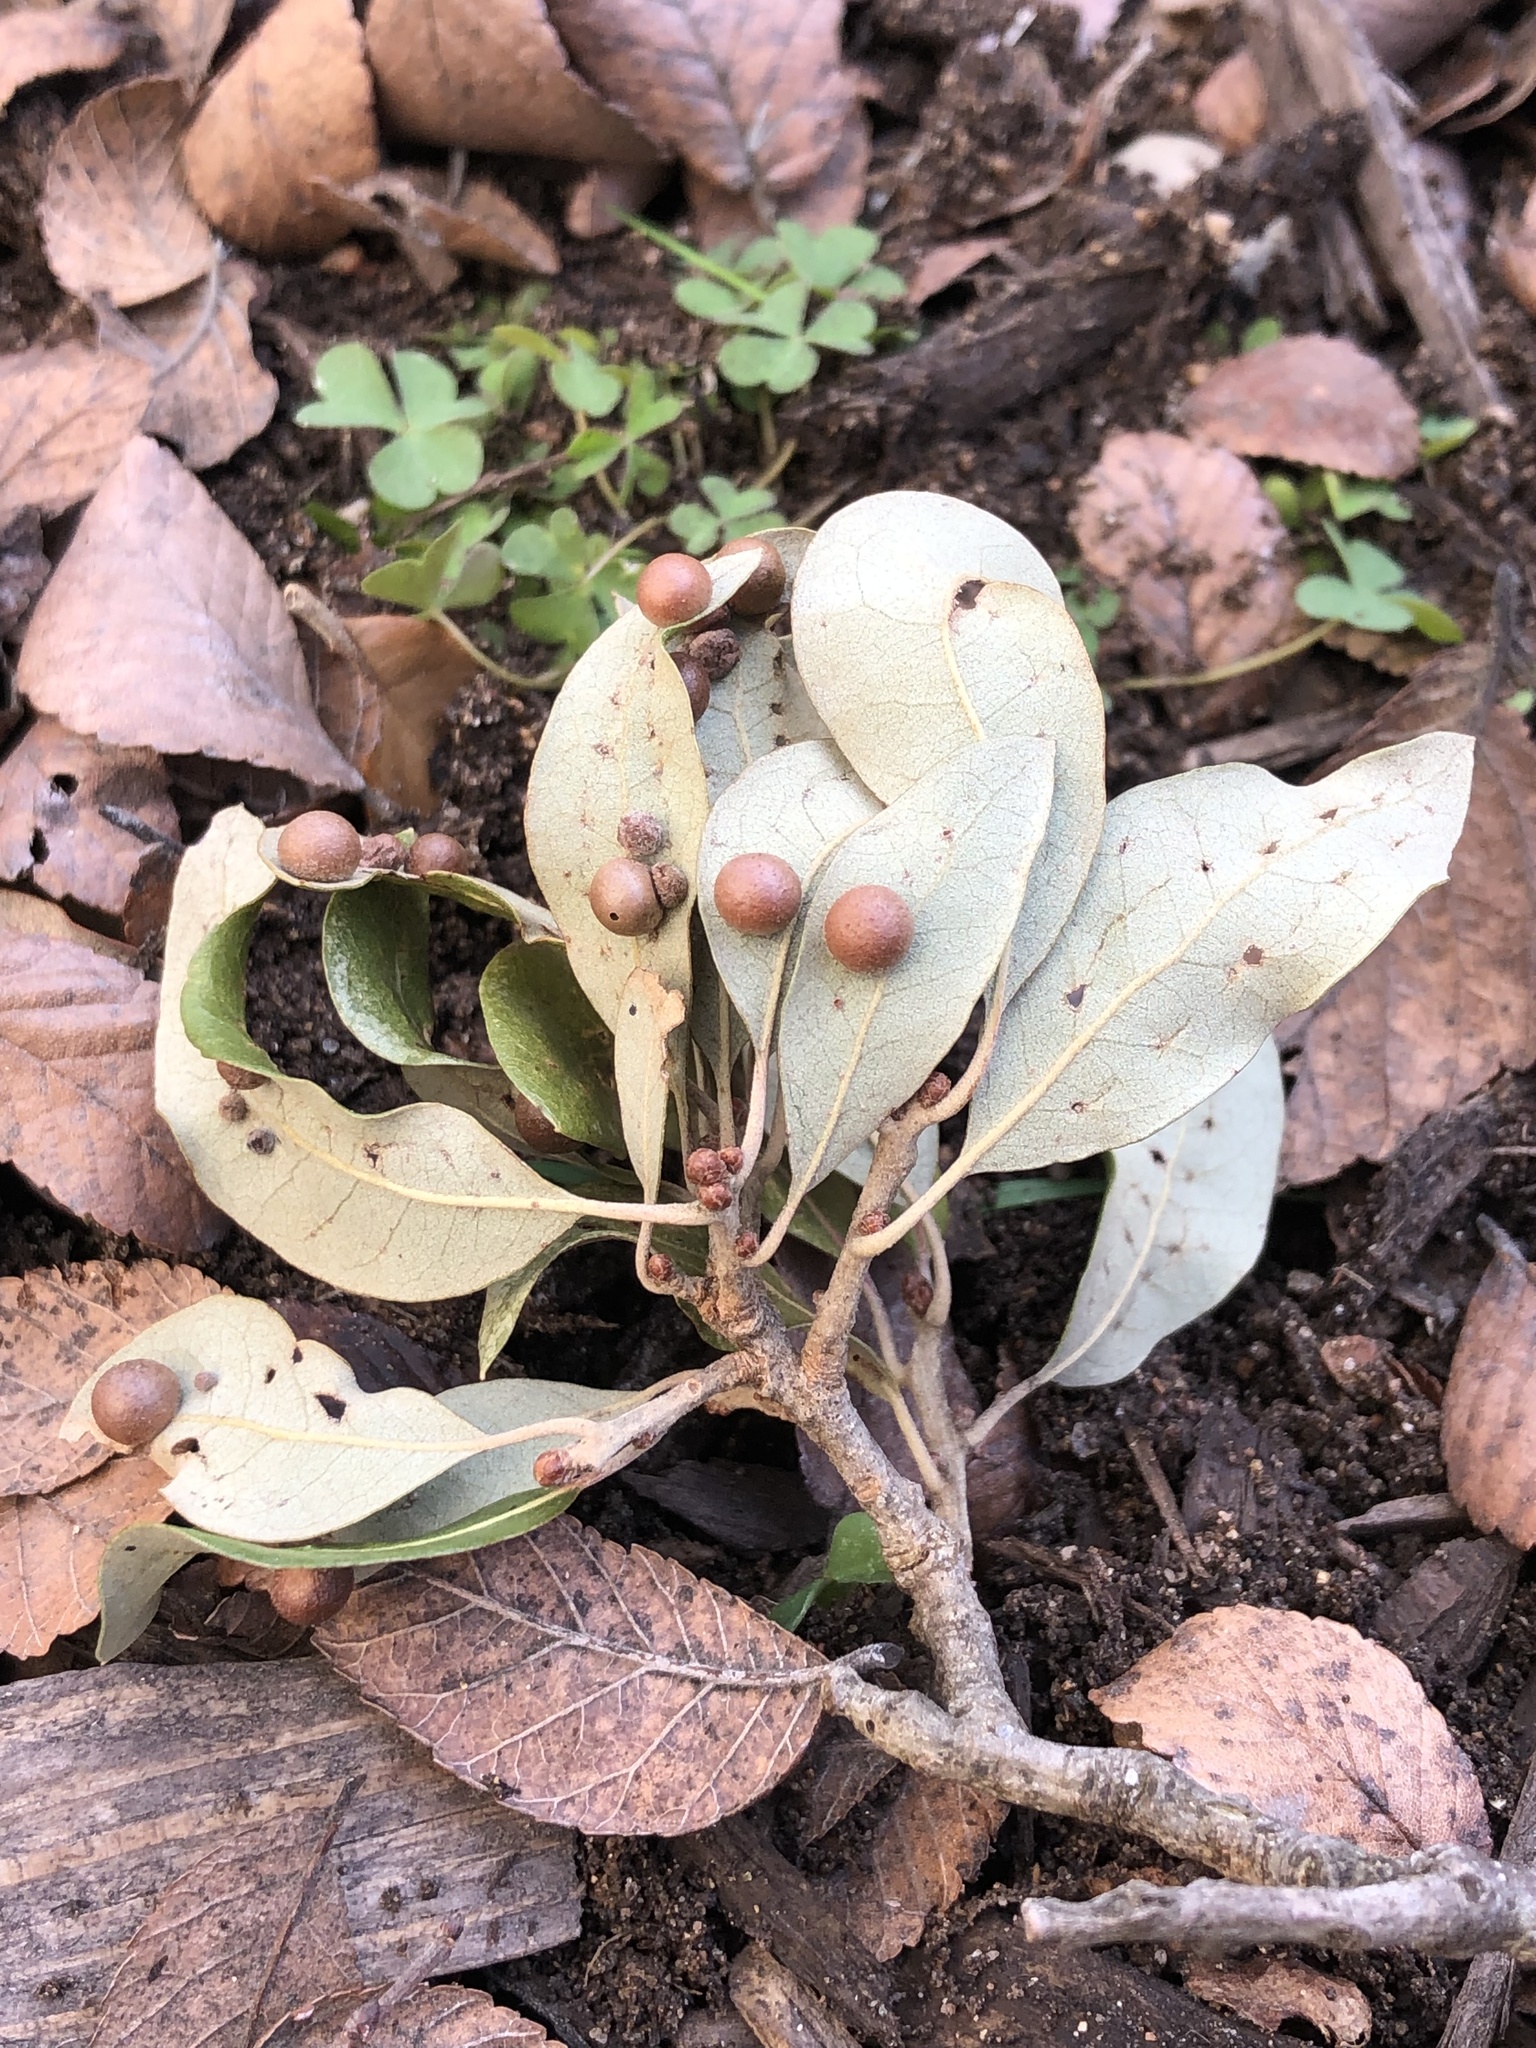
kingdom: Animalia
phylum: Arthropoda
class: Insecta
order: Hymenoptera
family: Cynipidae
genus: Belonocnema
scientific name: Belonocnema kinseyi
